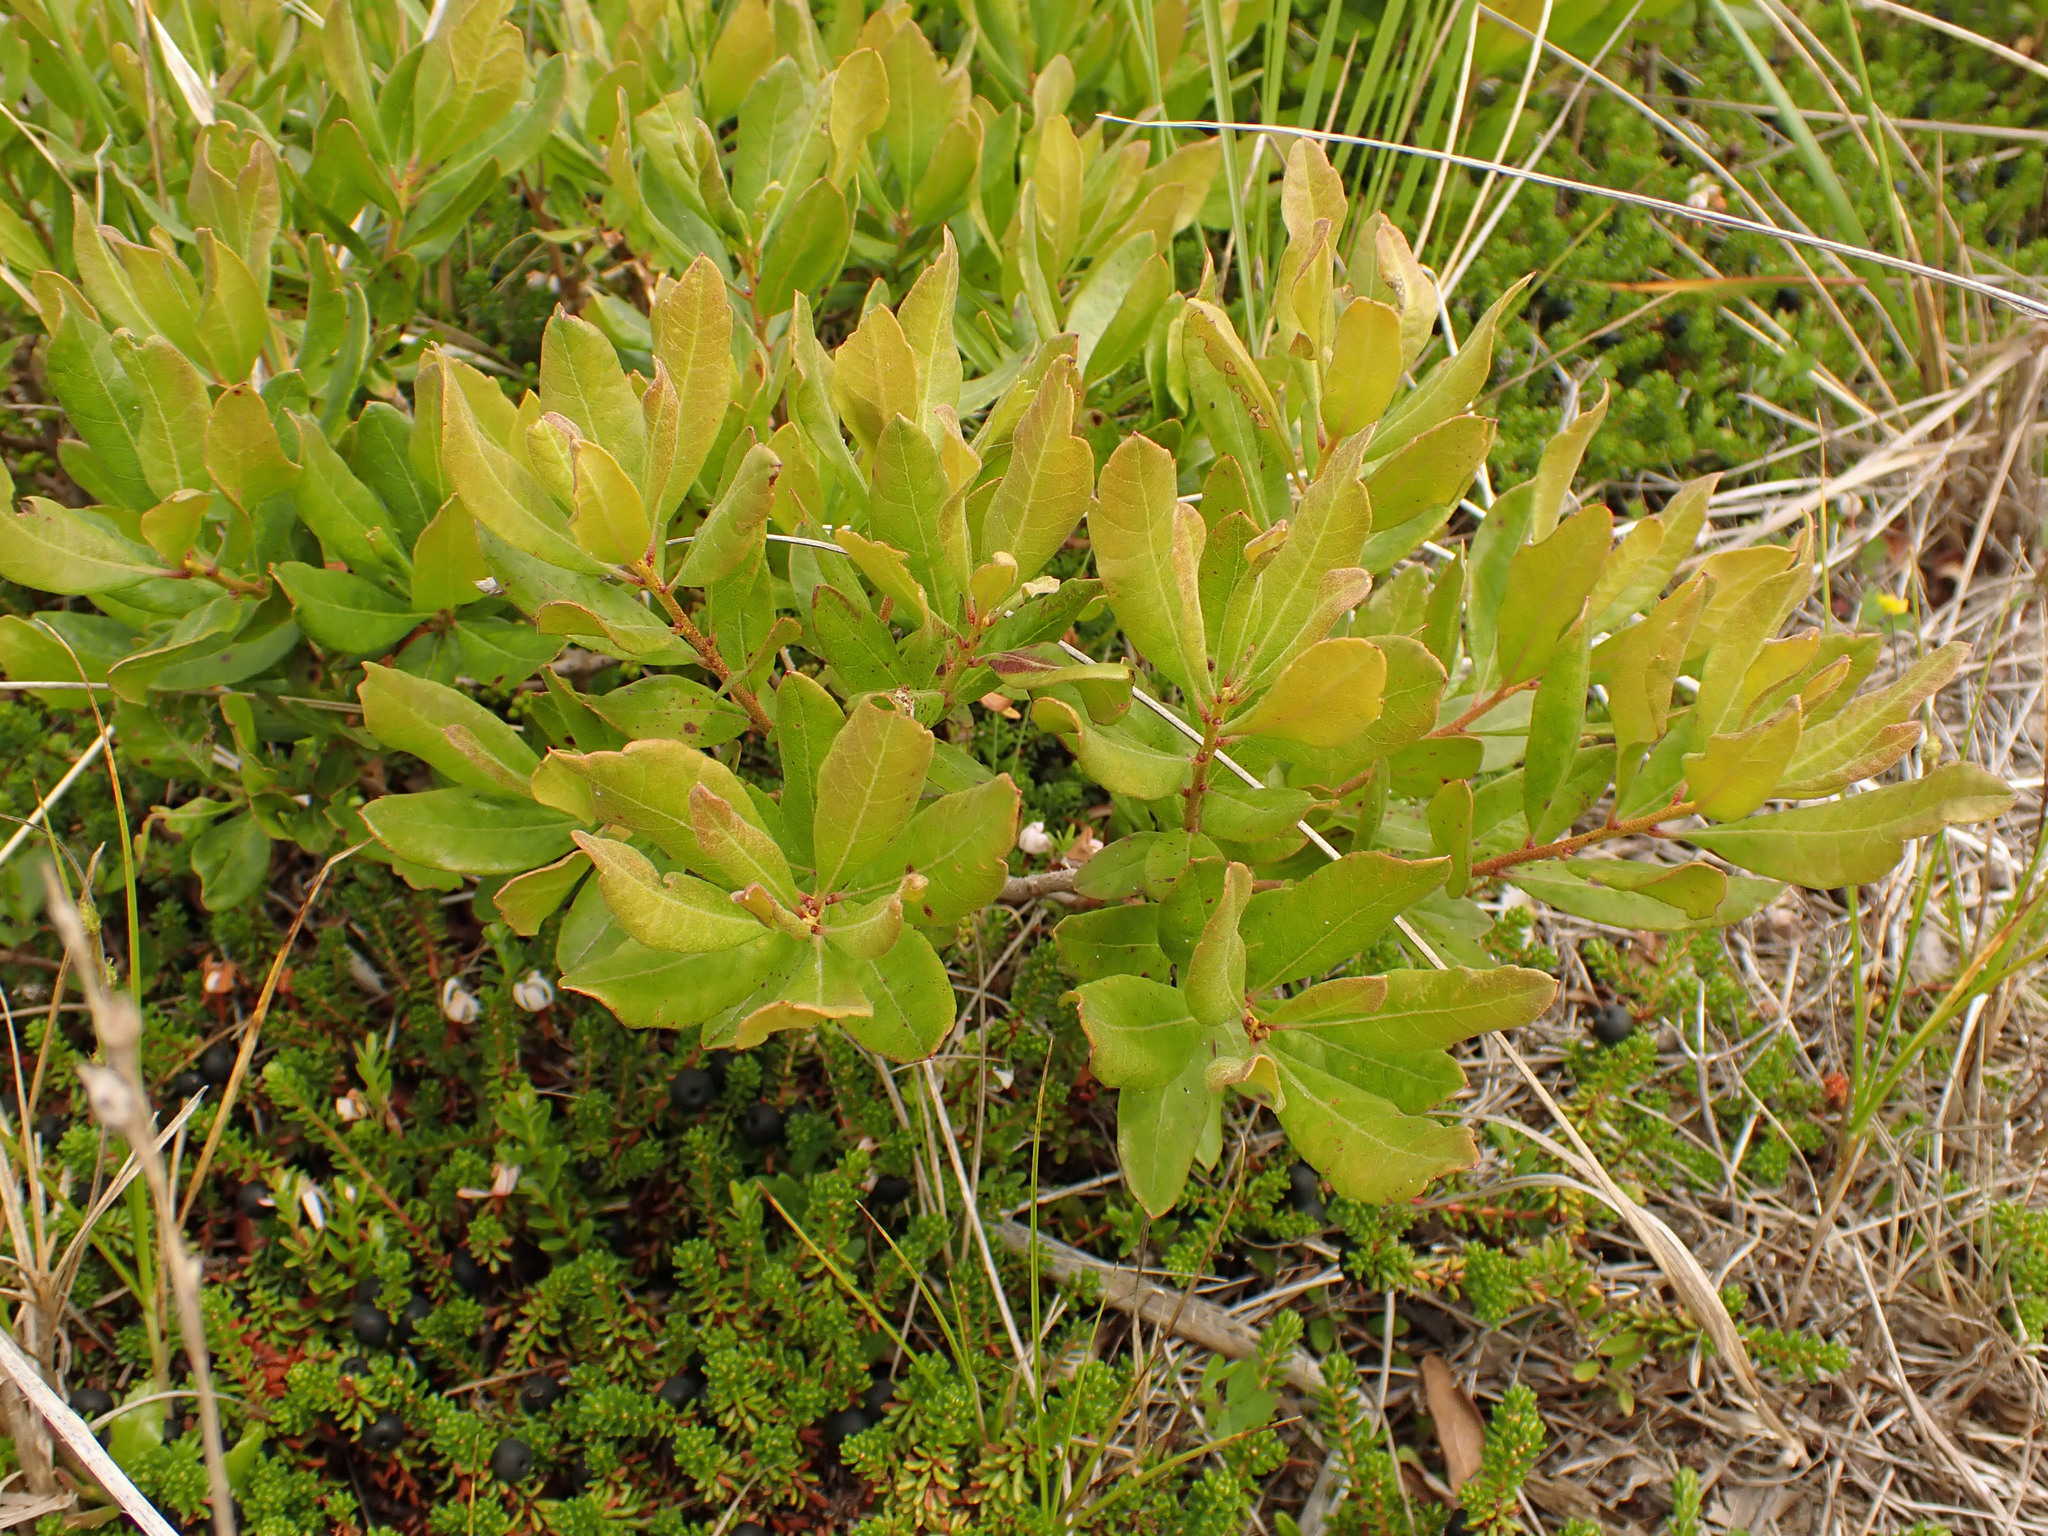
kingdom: Plantae
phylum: Tracheophyta
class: Magnoliopsida
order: Fagales
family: Myricaceae
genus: Morella
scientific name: Morella pensylvanica
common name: Northern bayberry
